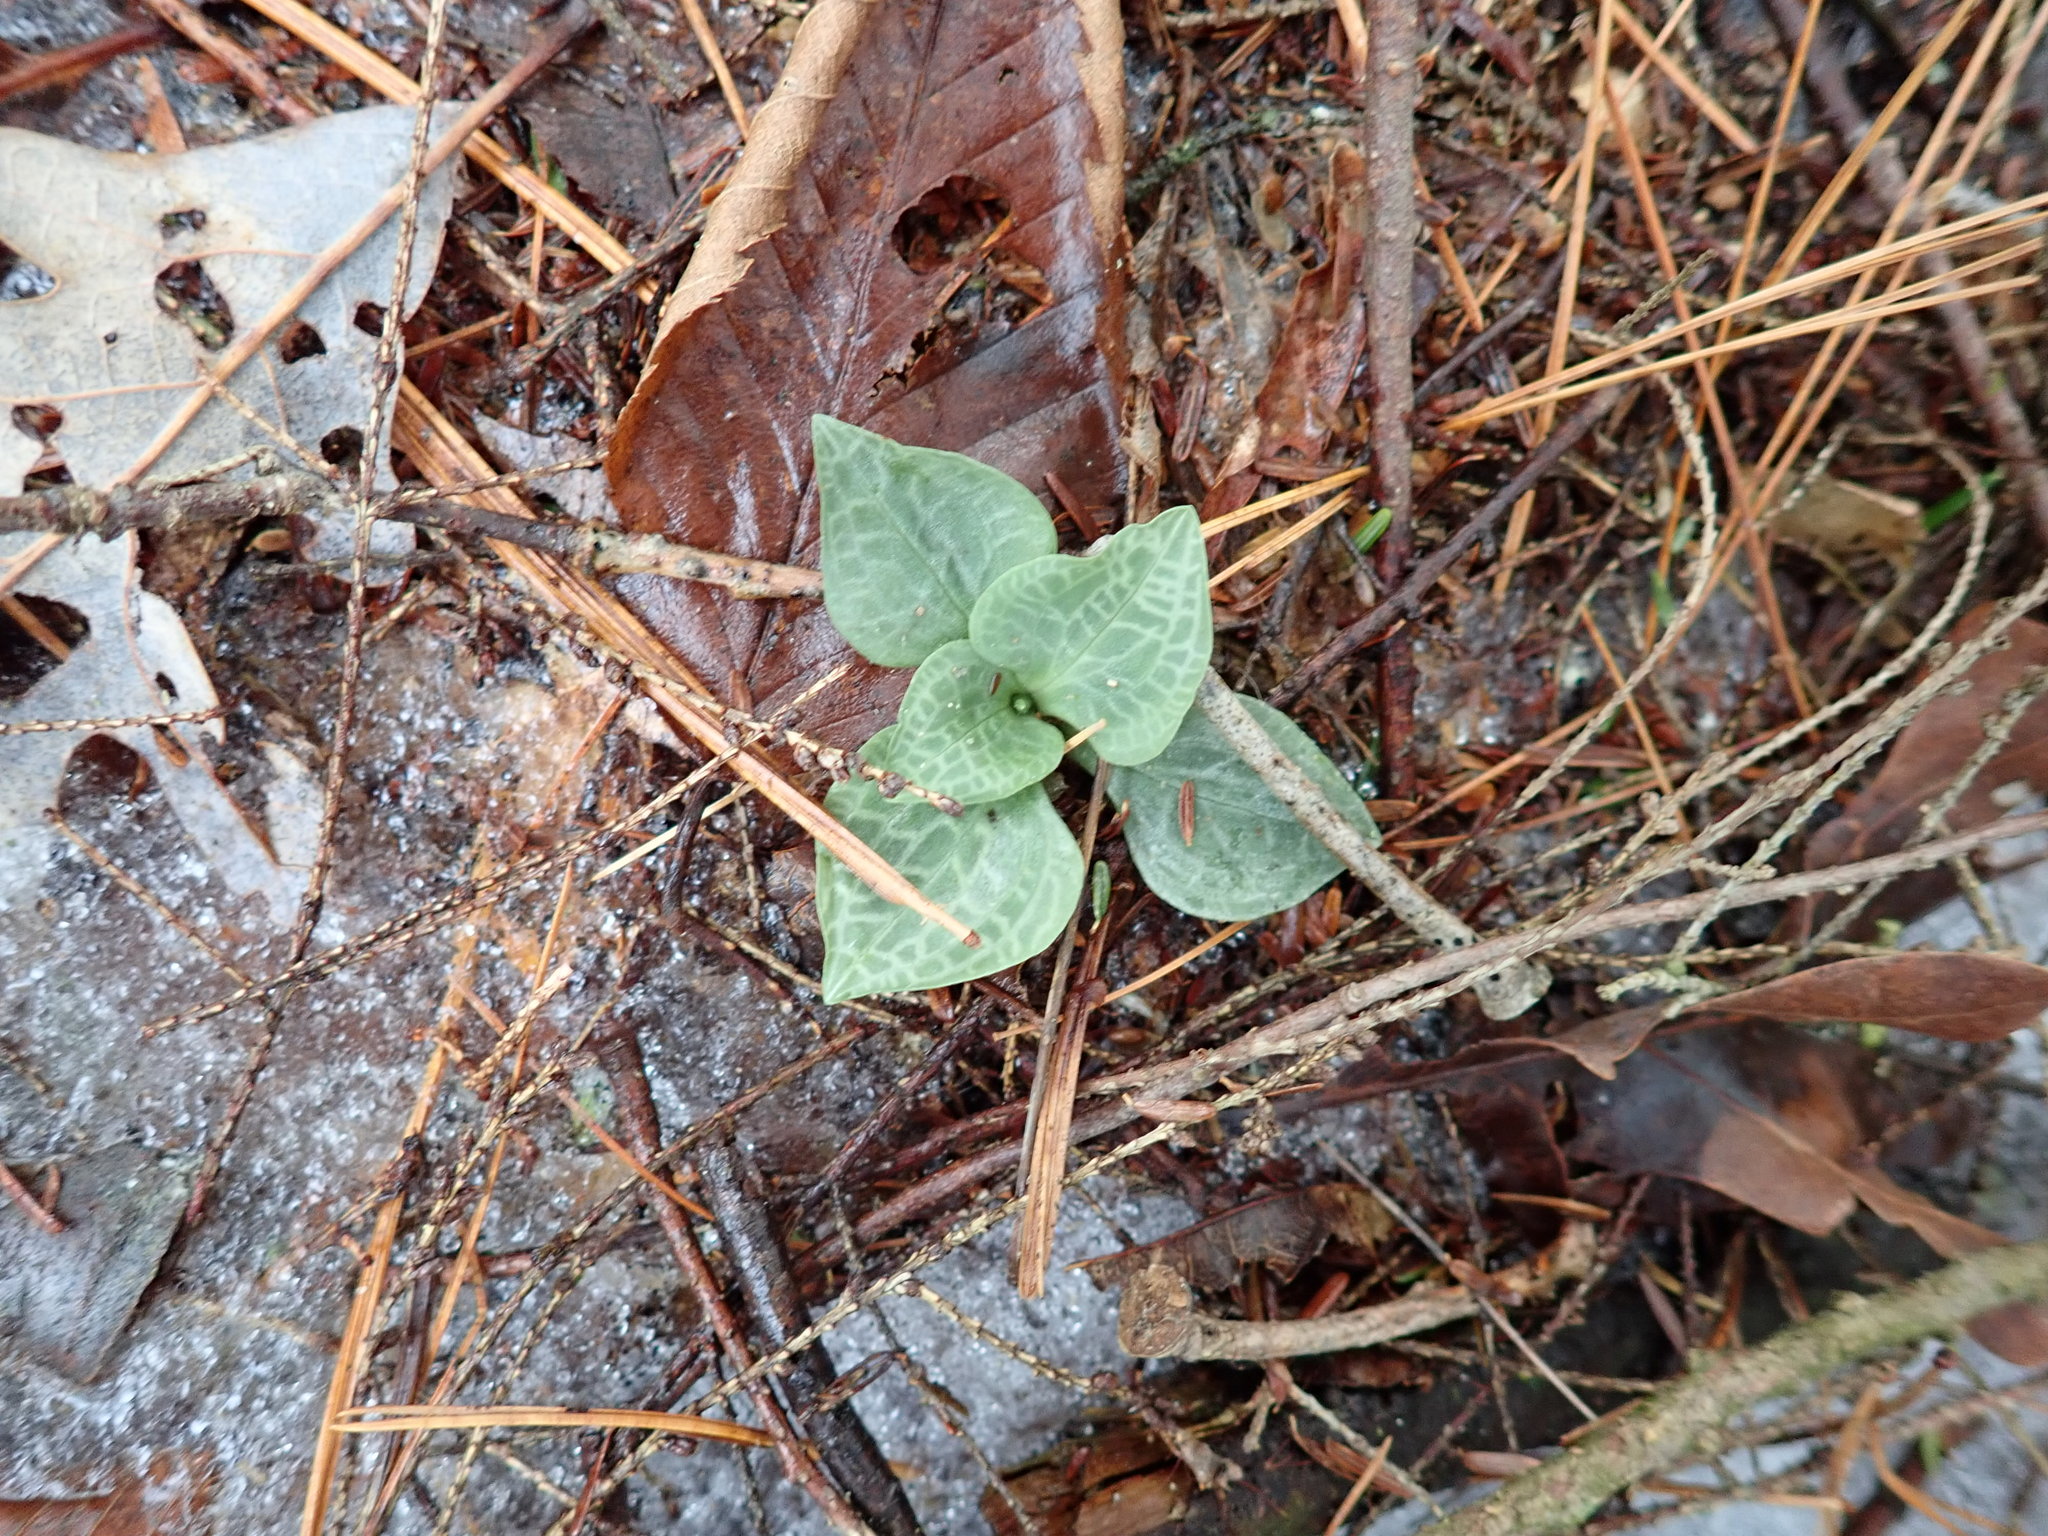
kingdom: Plantae
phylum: Tracheophyta
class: Liliopsida
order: Asparagales
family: Orchidaceae
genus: Goodyera
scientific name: Goodyera tesselata
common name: Checkered rattlesnake-plantain
